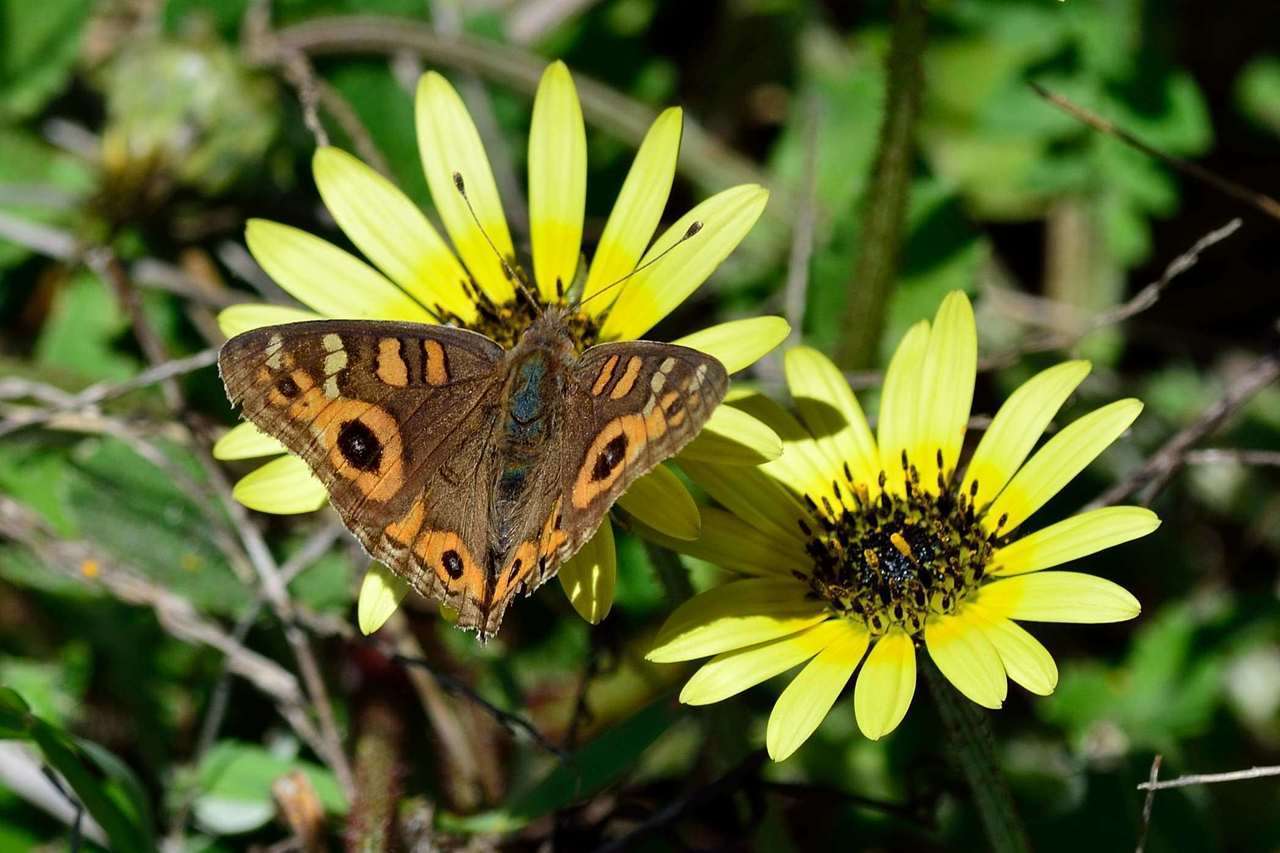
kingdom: Animalia
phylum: Arthropoda
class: Insecta
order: Lepidoptera
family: Nymphalidae
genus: Junonia
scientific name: Junonia villida
